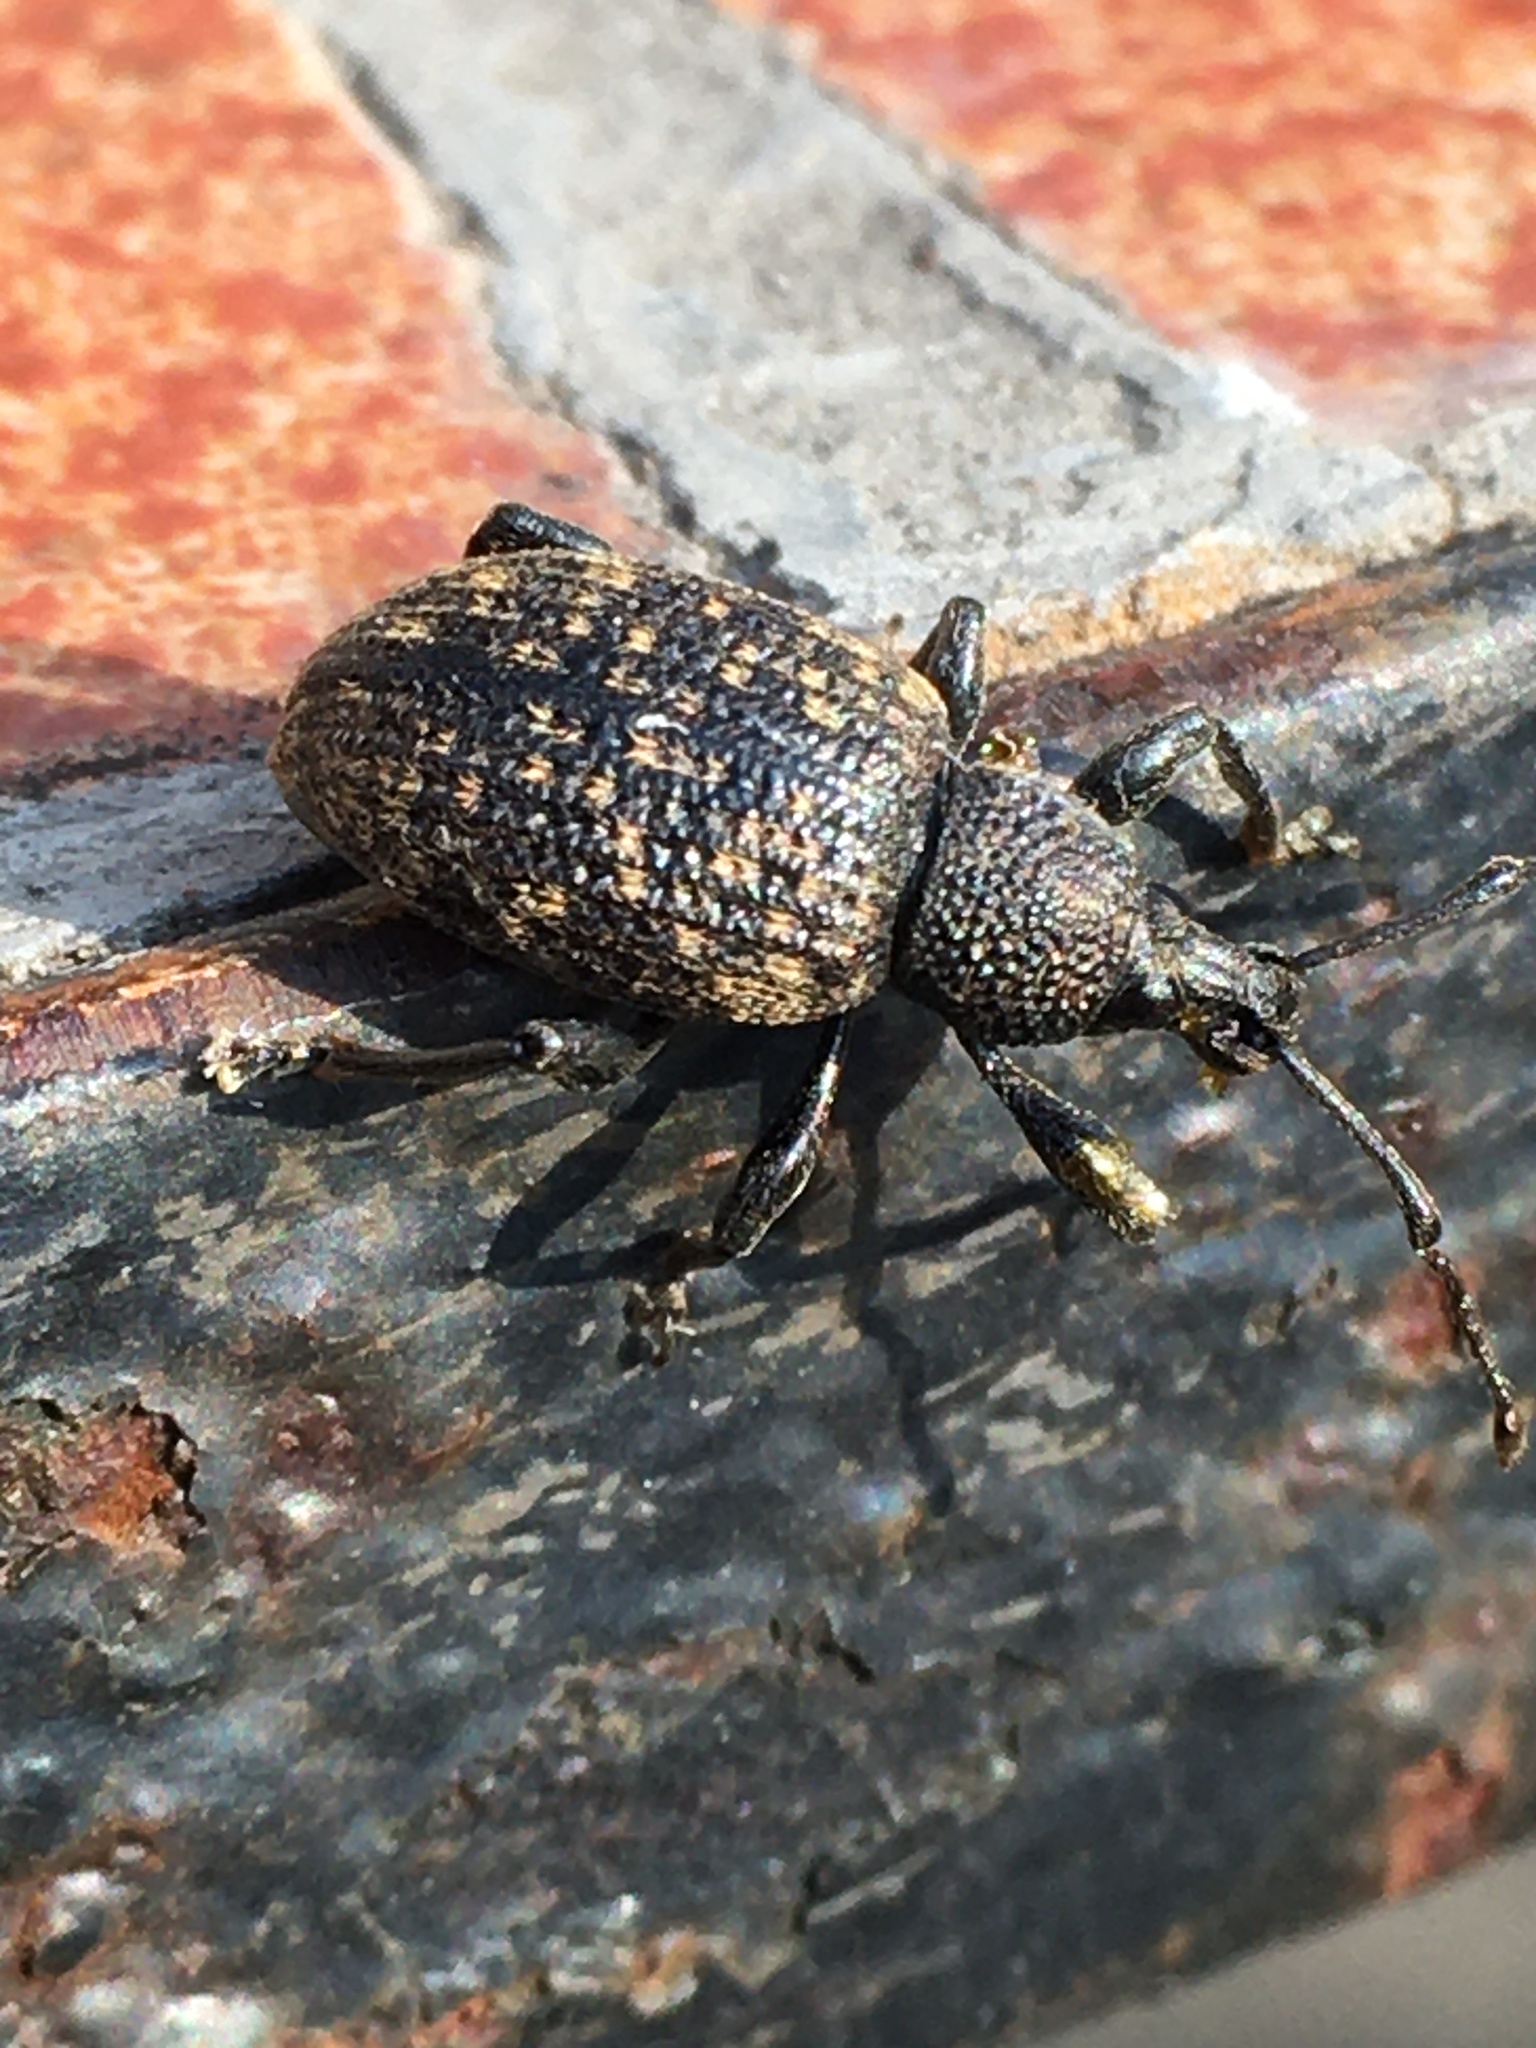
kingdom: Animalia
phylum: Arthropoda
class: Insecta
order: Coleoptera
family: Curculionidae
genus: Otiorhynchus
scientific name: Otiorhynchus sulcatus
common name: Black vine weevil
